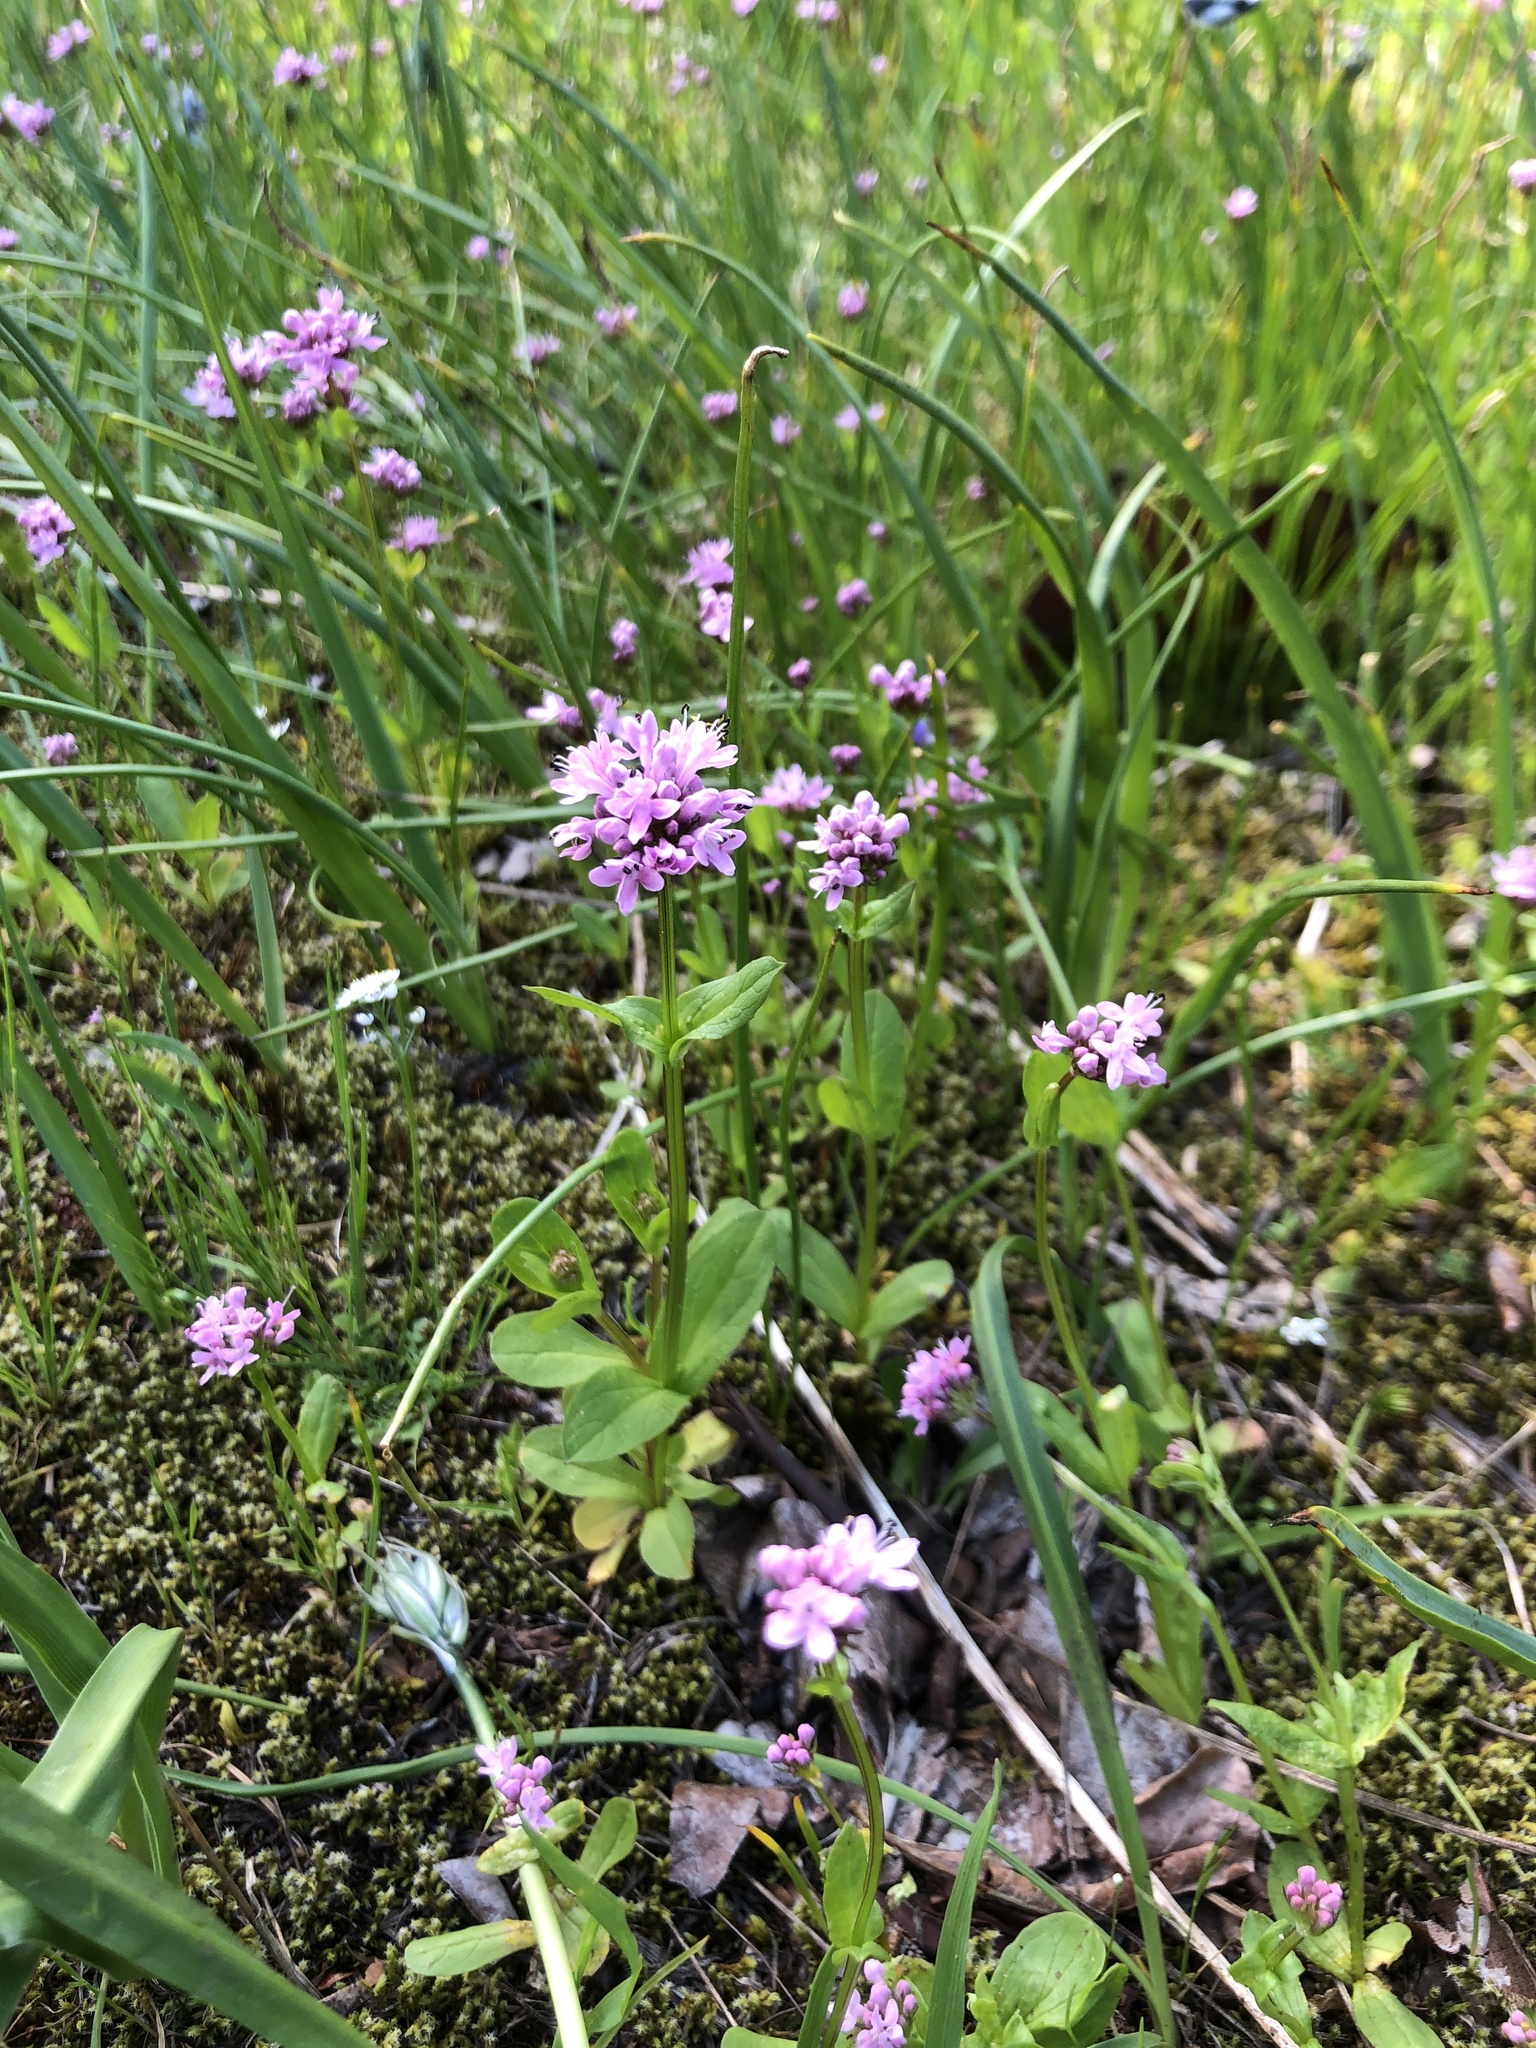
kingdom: Plantae
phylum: Tracheophyta
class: Magnoliopsida
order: Dipsacales
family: Caprifoliaceae
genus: Plectritis
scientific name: Plectritis congesta
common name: Pink plectritis
